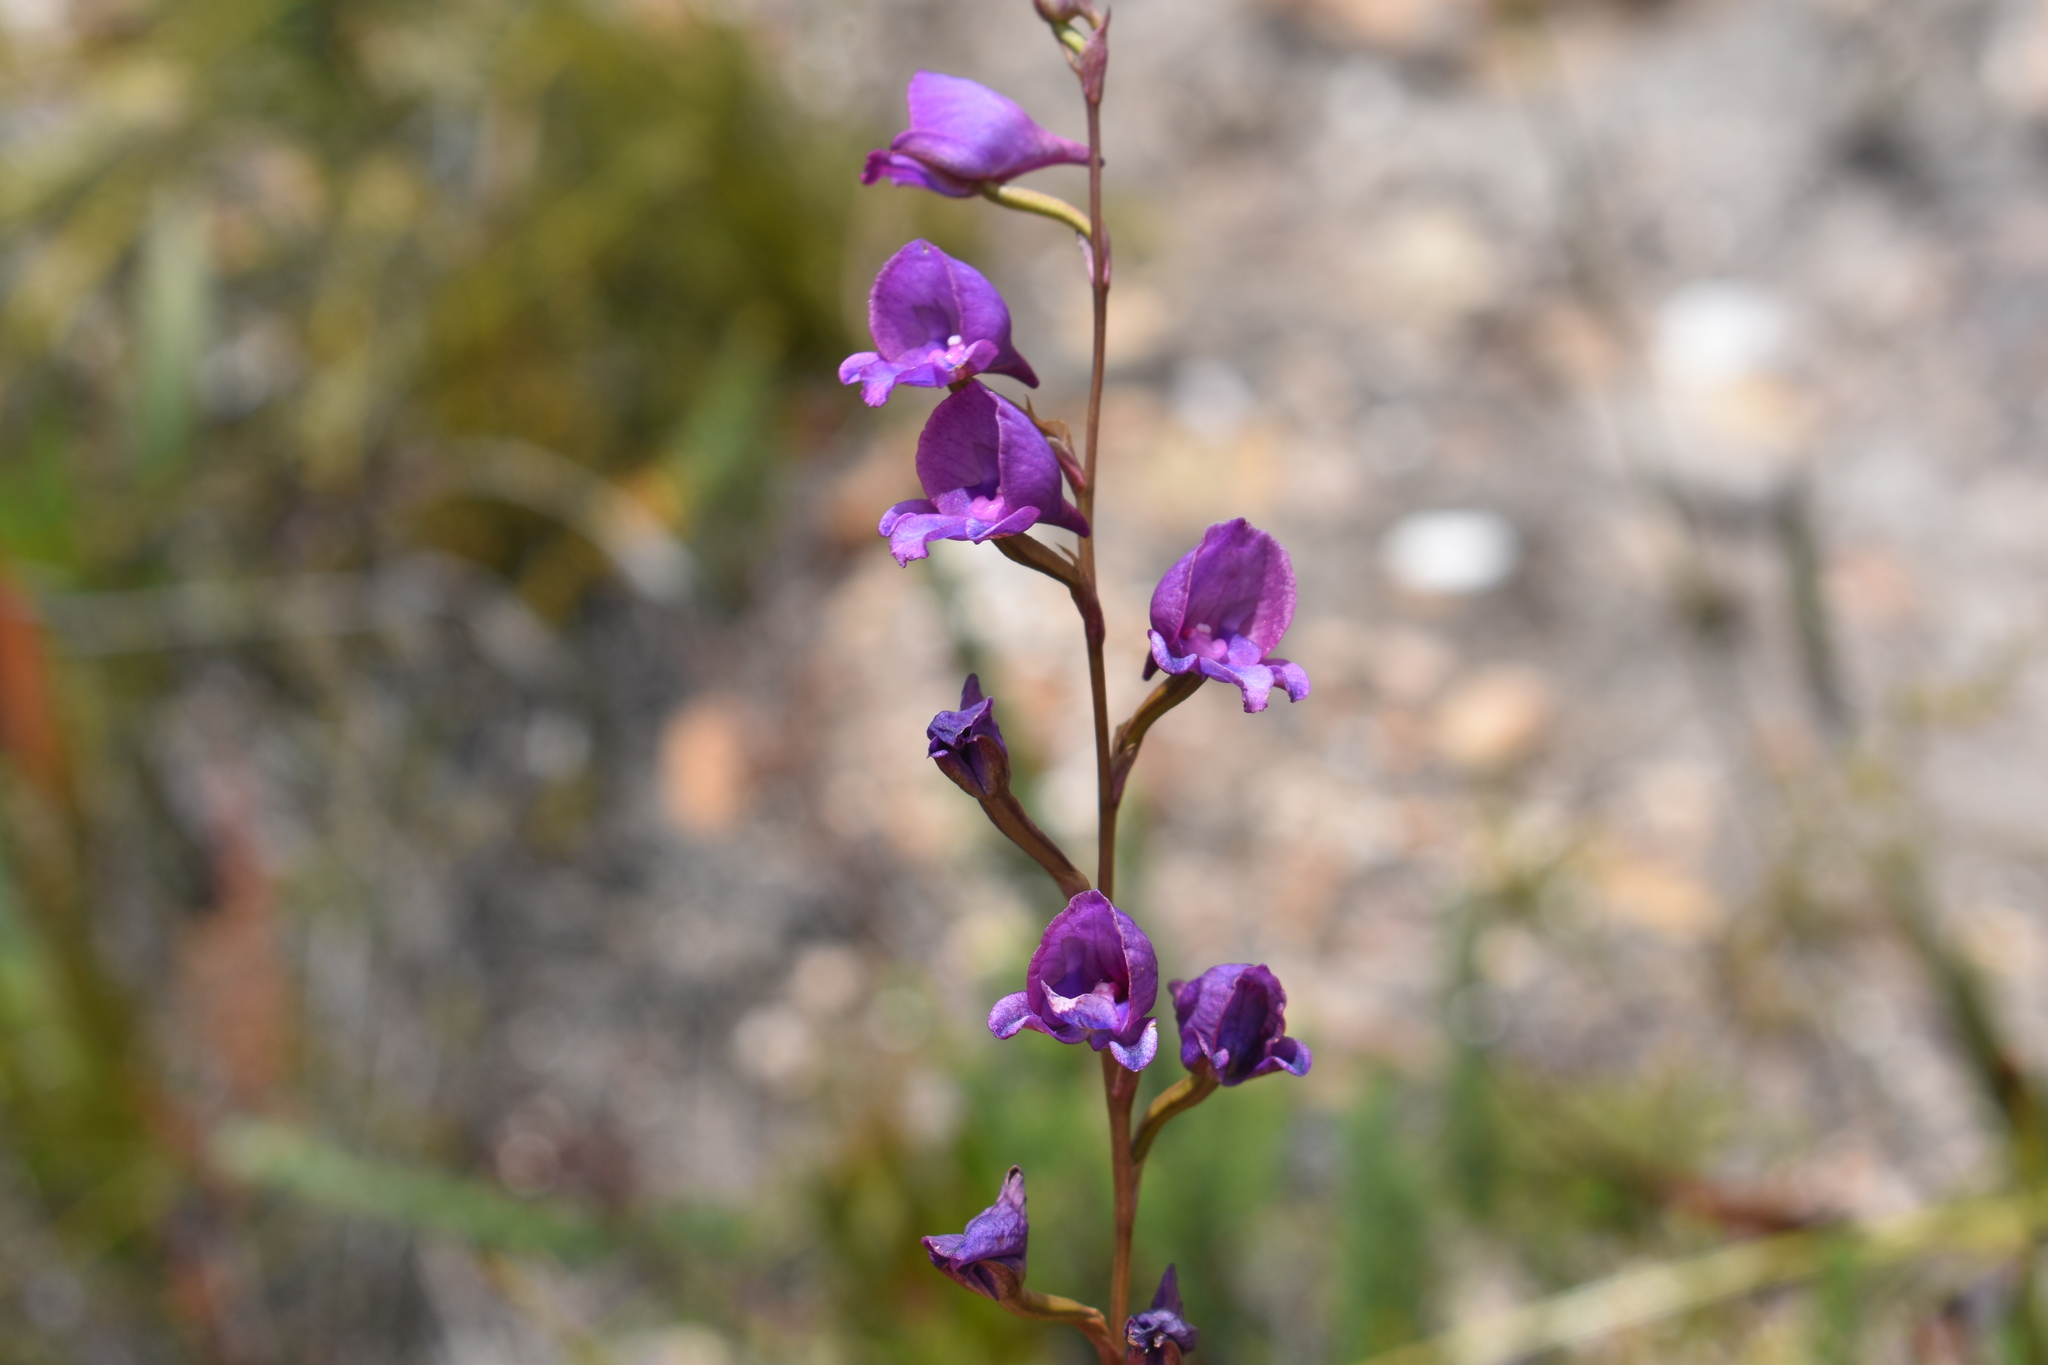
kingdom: Plantae
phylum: Tracheophyta
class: Liliopsida
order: Asparagales
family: Orchidaceae
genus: Disa
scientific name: Disa hians
